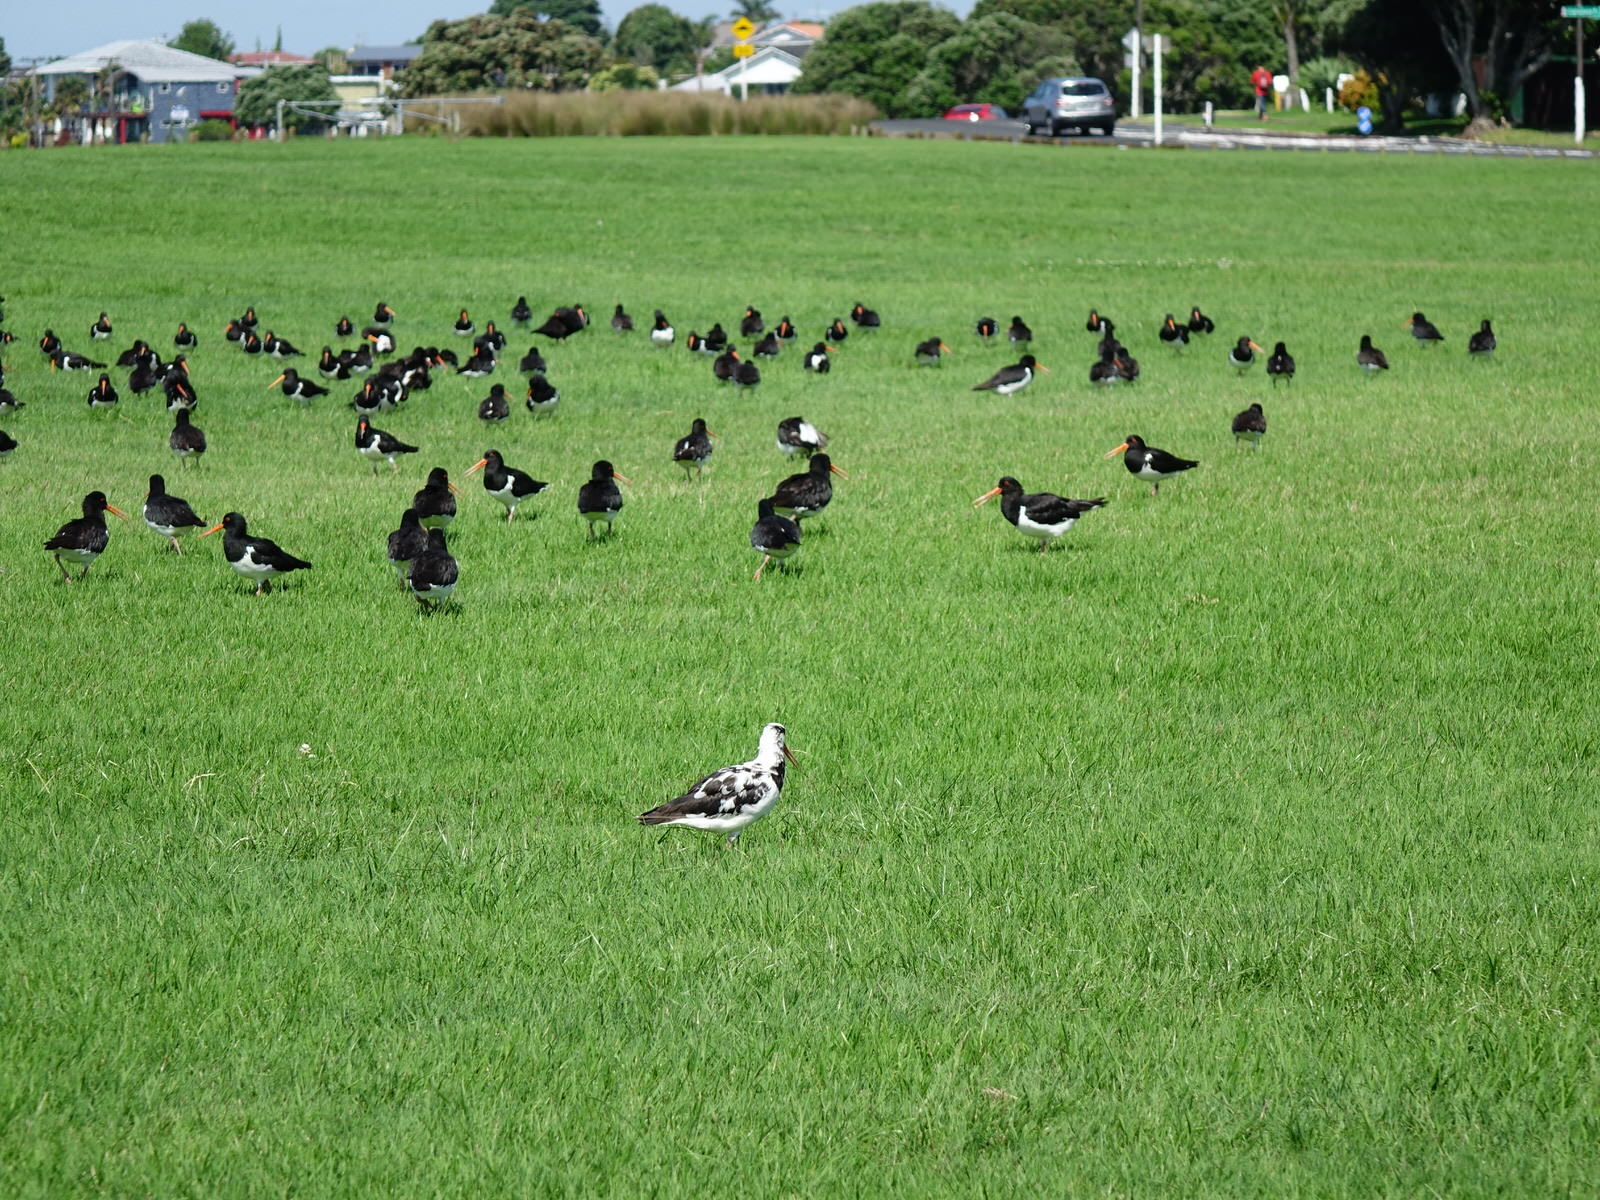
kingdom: Animalia
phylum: Chordata
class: Aves
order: Charadriiformes
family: Haematopodidae
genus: Haematopus
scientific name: Haematopus finschi
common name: South island oystercatcher
